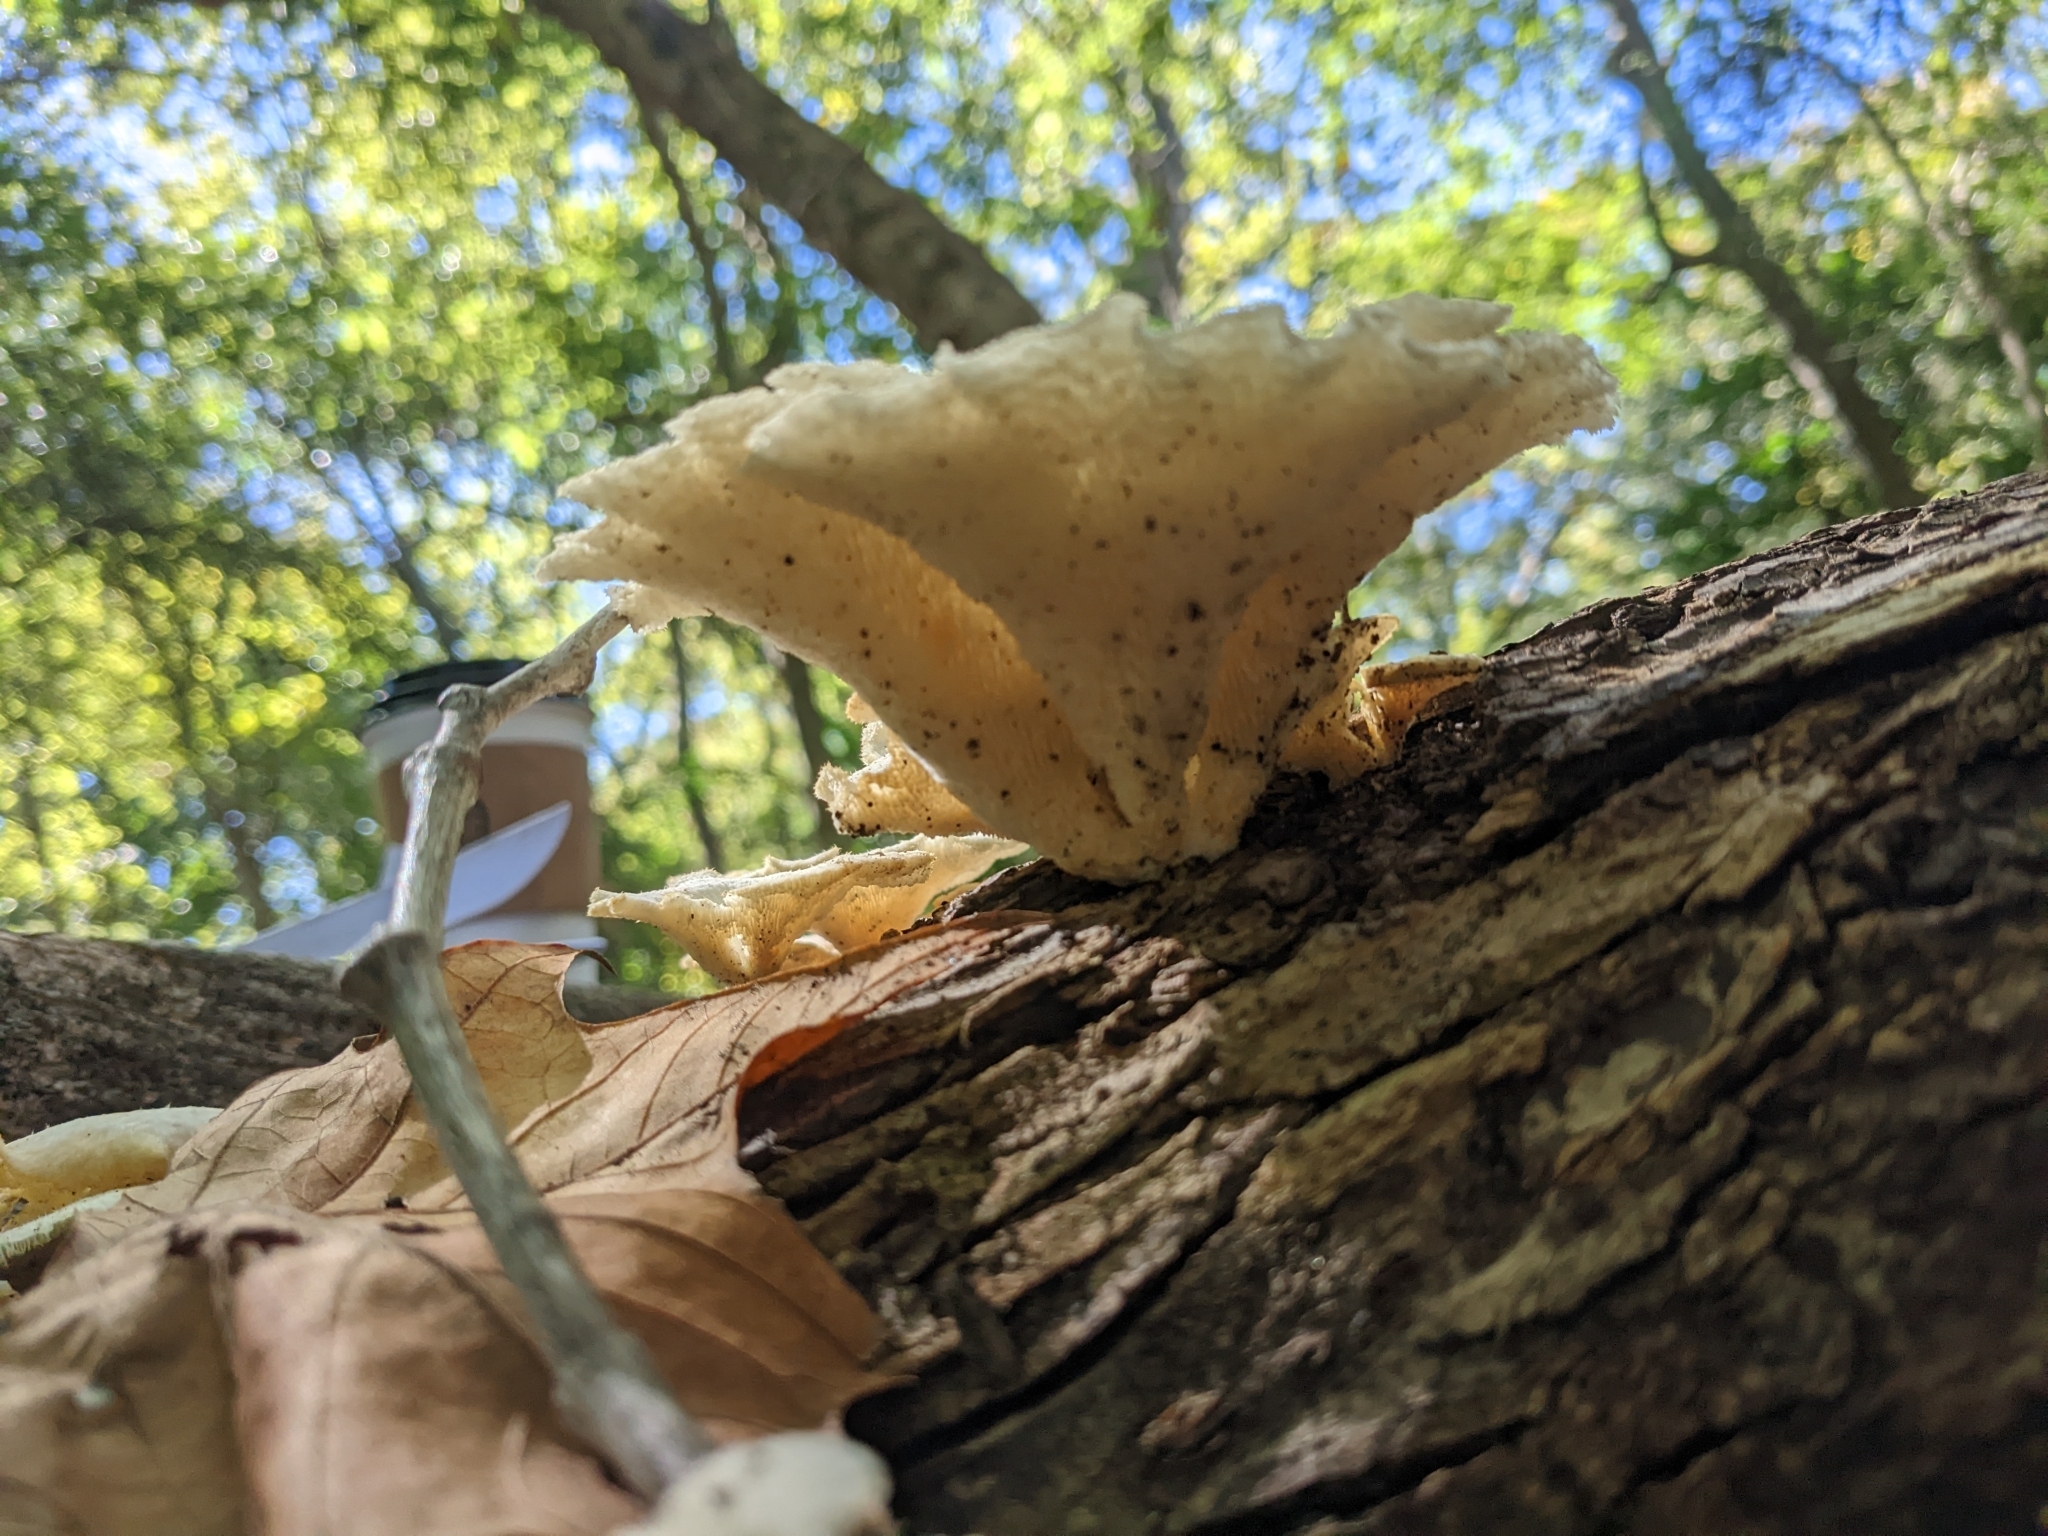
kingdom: Fungi
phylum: Basidiomycota
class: Agaricomycetes
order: Polyporales
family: Polyporaceae
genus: Favolus
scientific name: Favolus tenuiculus
